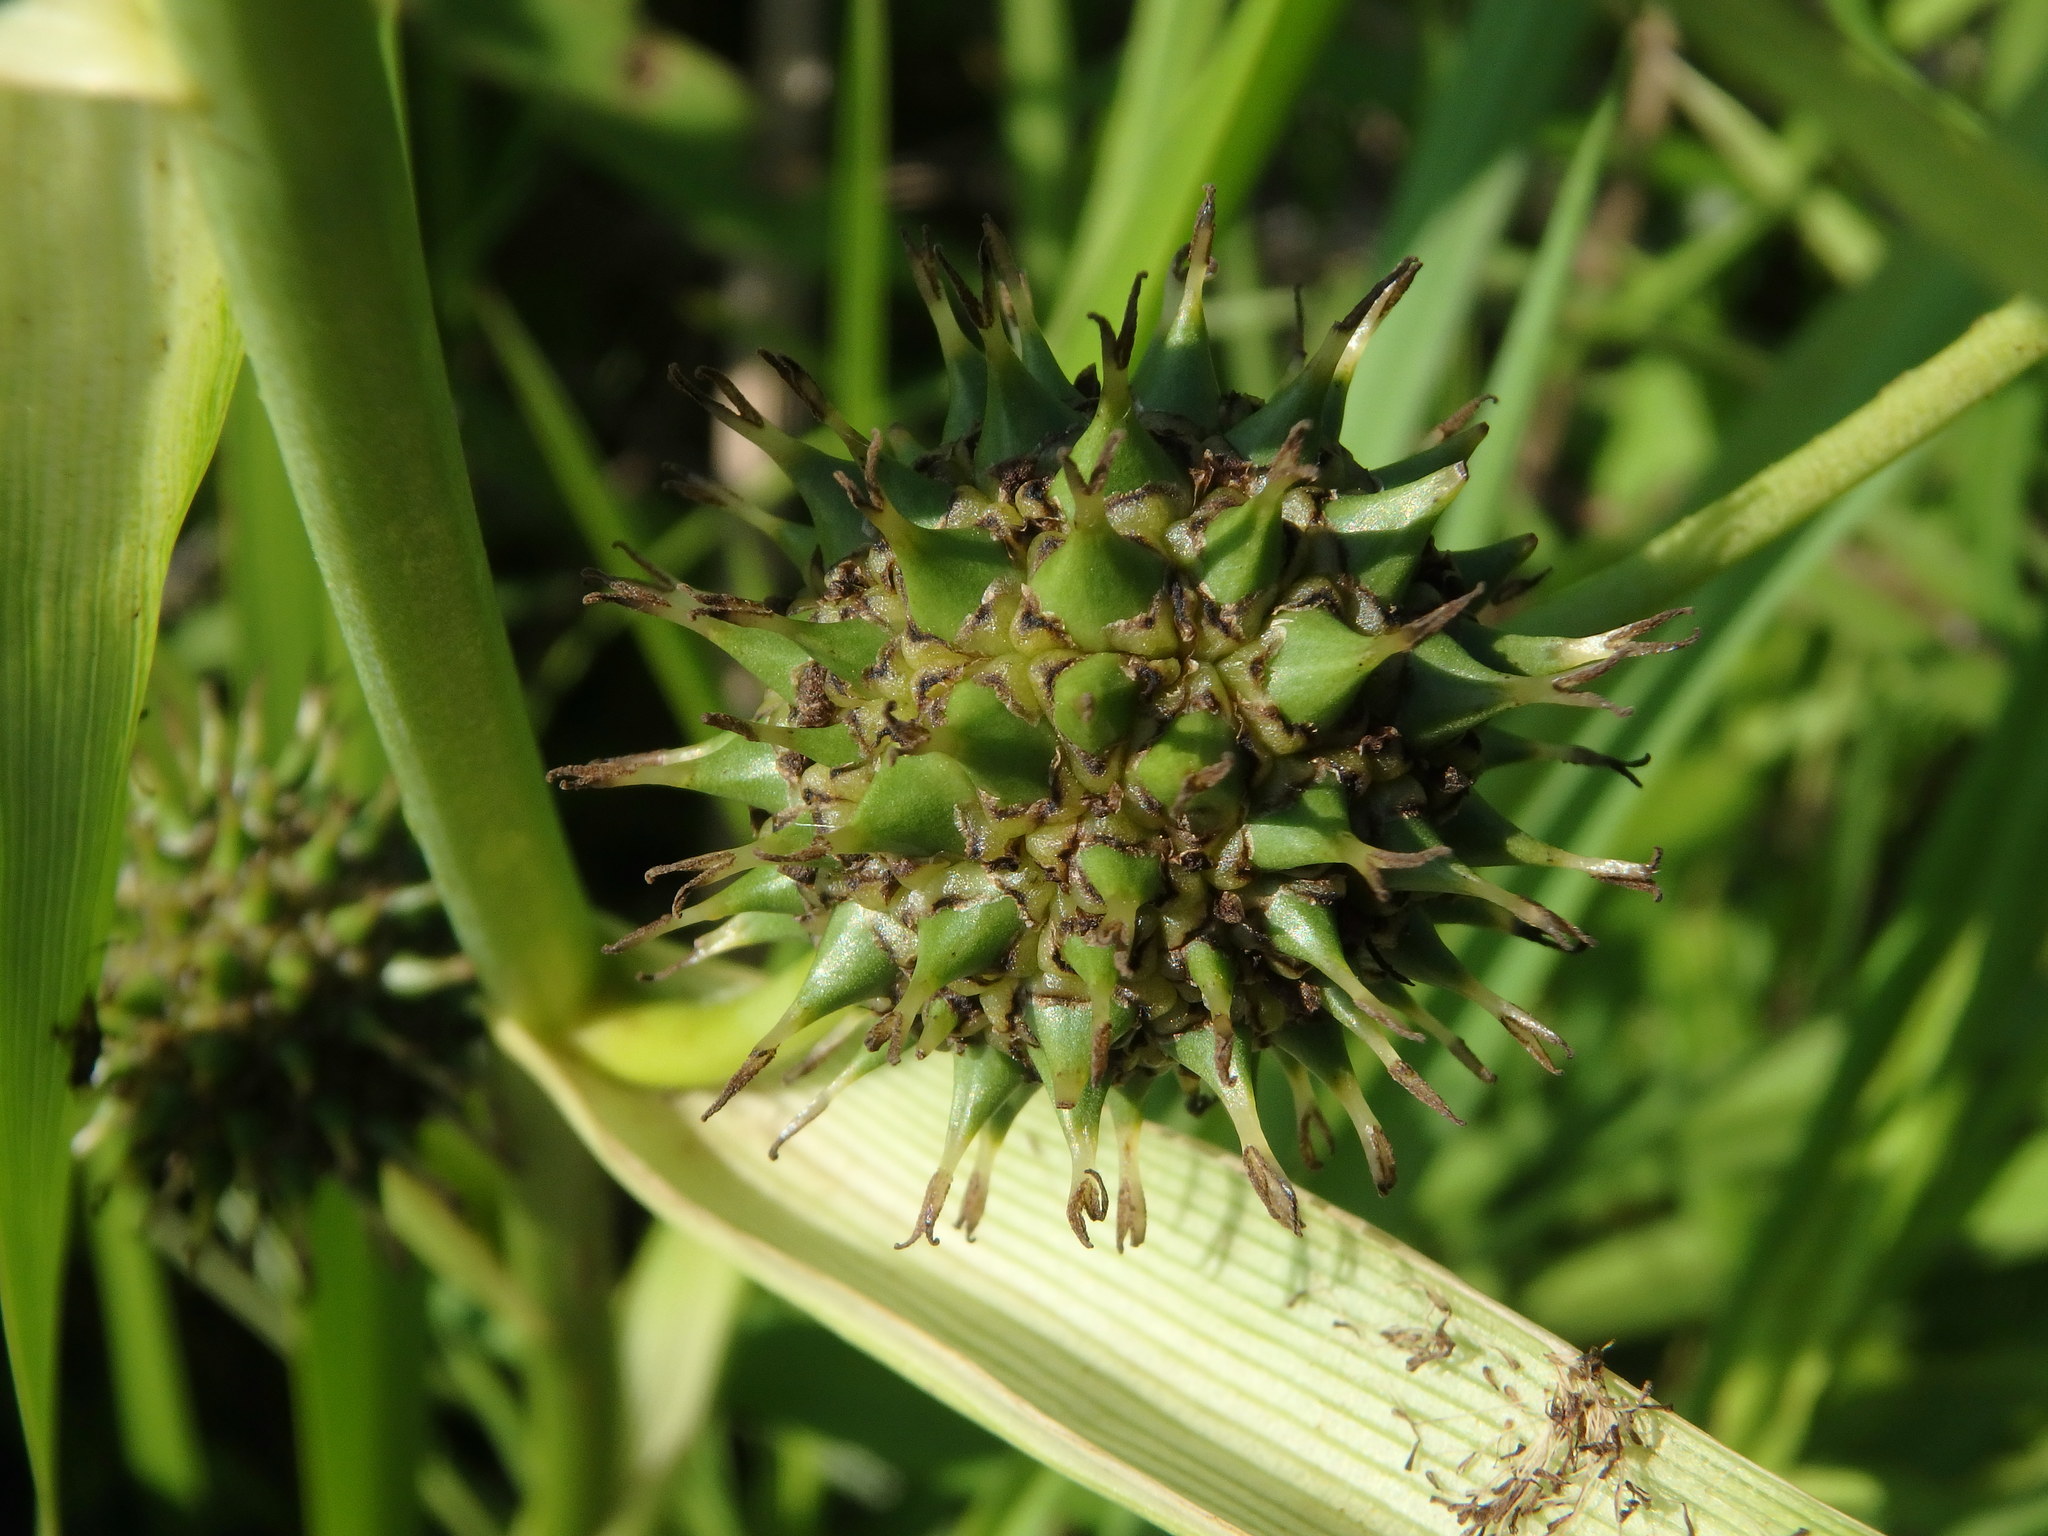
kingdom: Plantae
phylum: Tracheophyta
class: Liliopsida
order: Poales
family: Typhaceae
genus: Sparganium
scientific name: Sparganium eurycarpum
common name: Broad-fruited burreed
